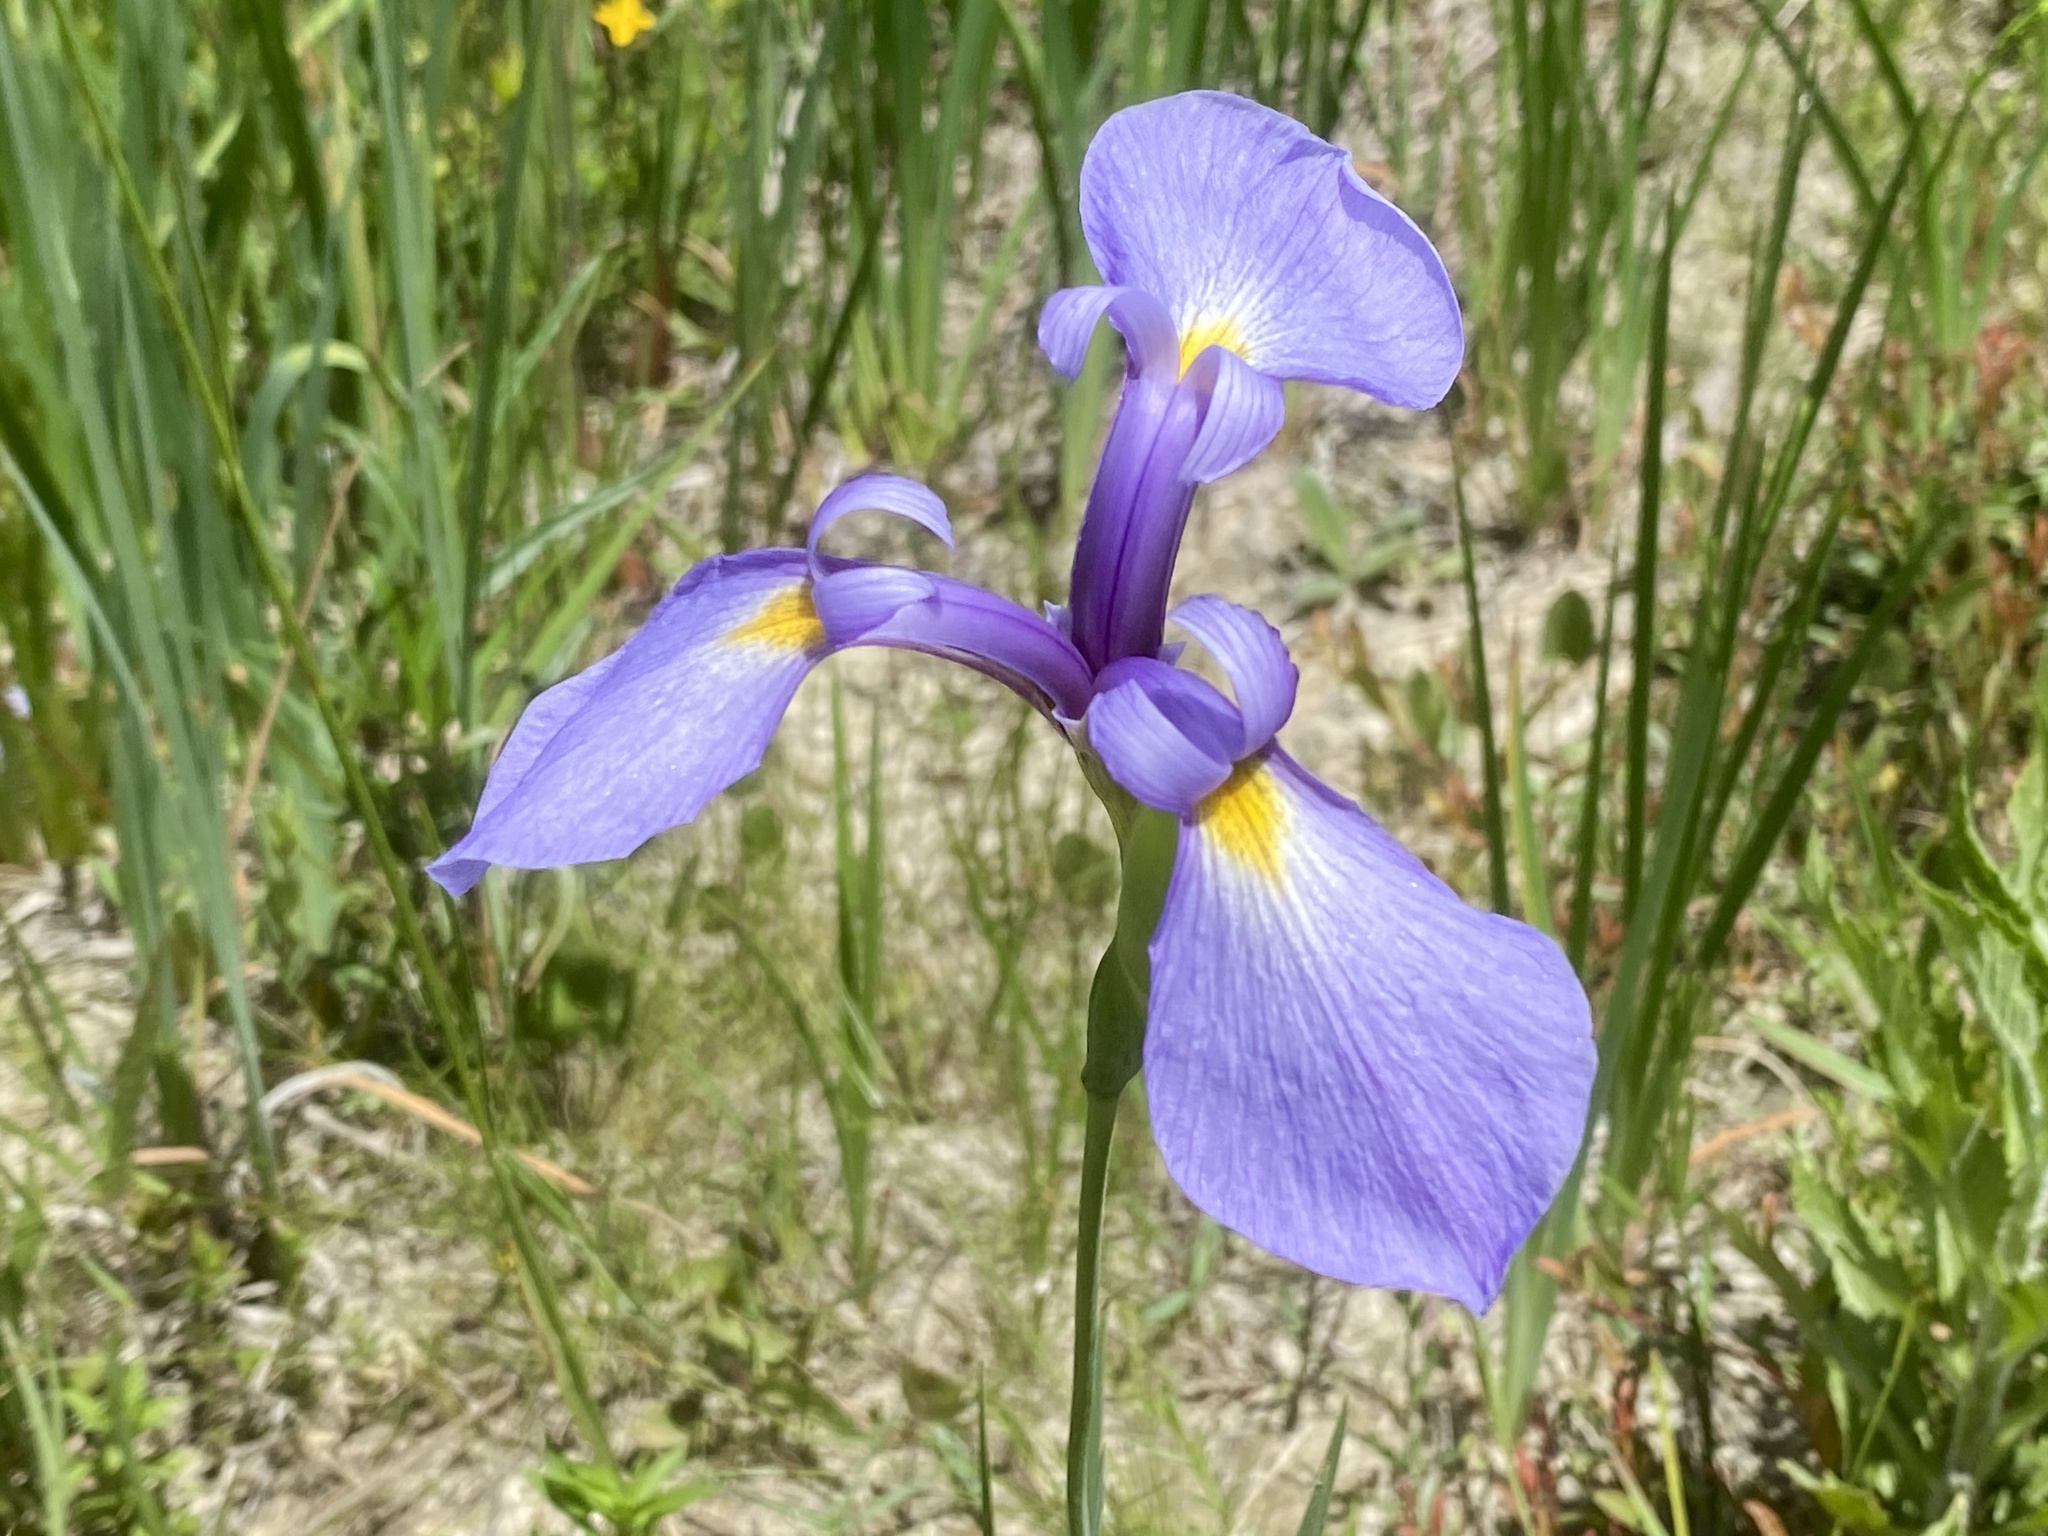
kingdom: Plantae
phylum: Tracheophyta
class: Liliopsida
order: Asparagales
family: Iridaceae
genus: Iris
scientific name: Iris tridentata
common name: Savannah iris
